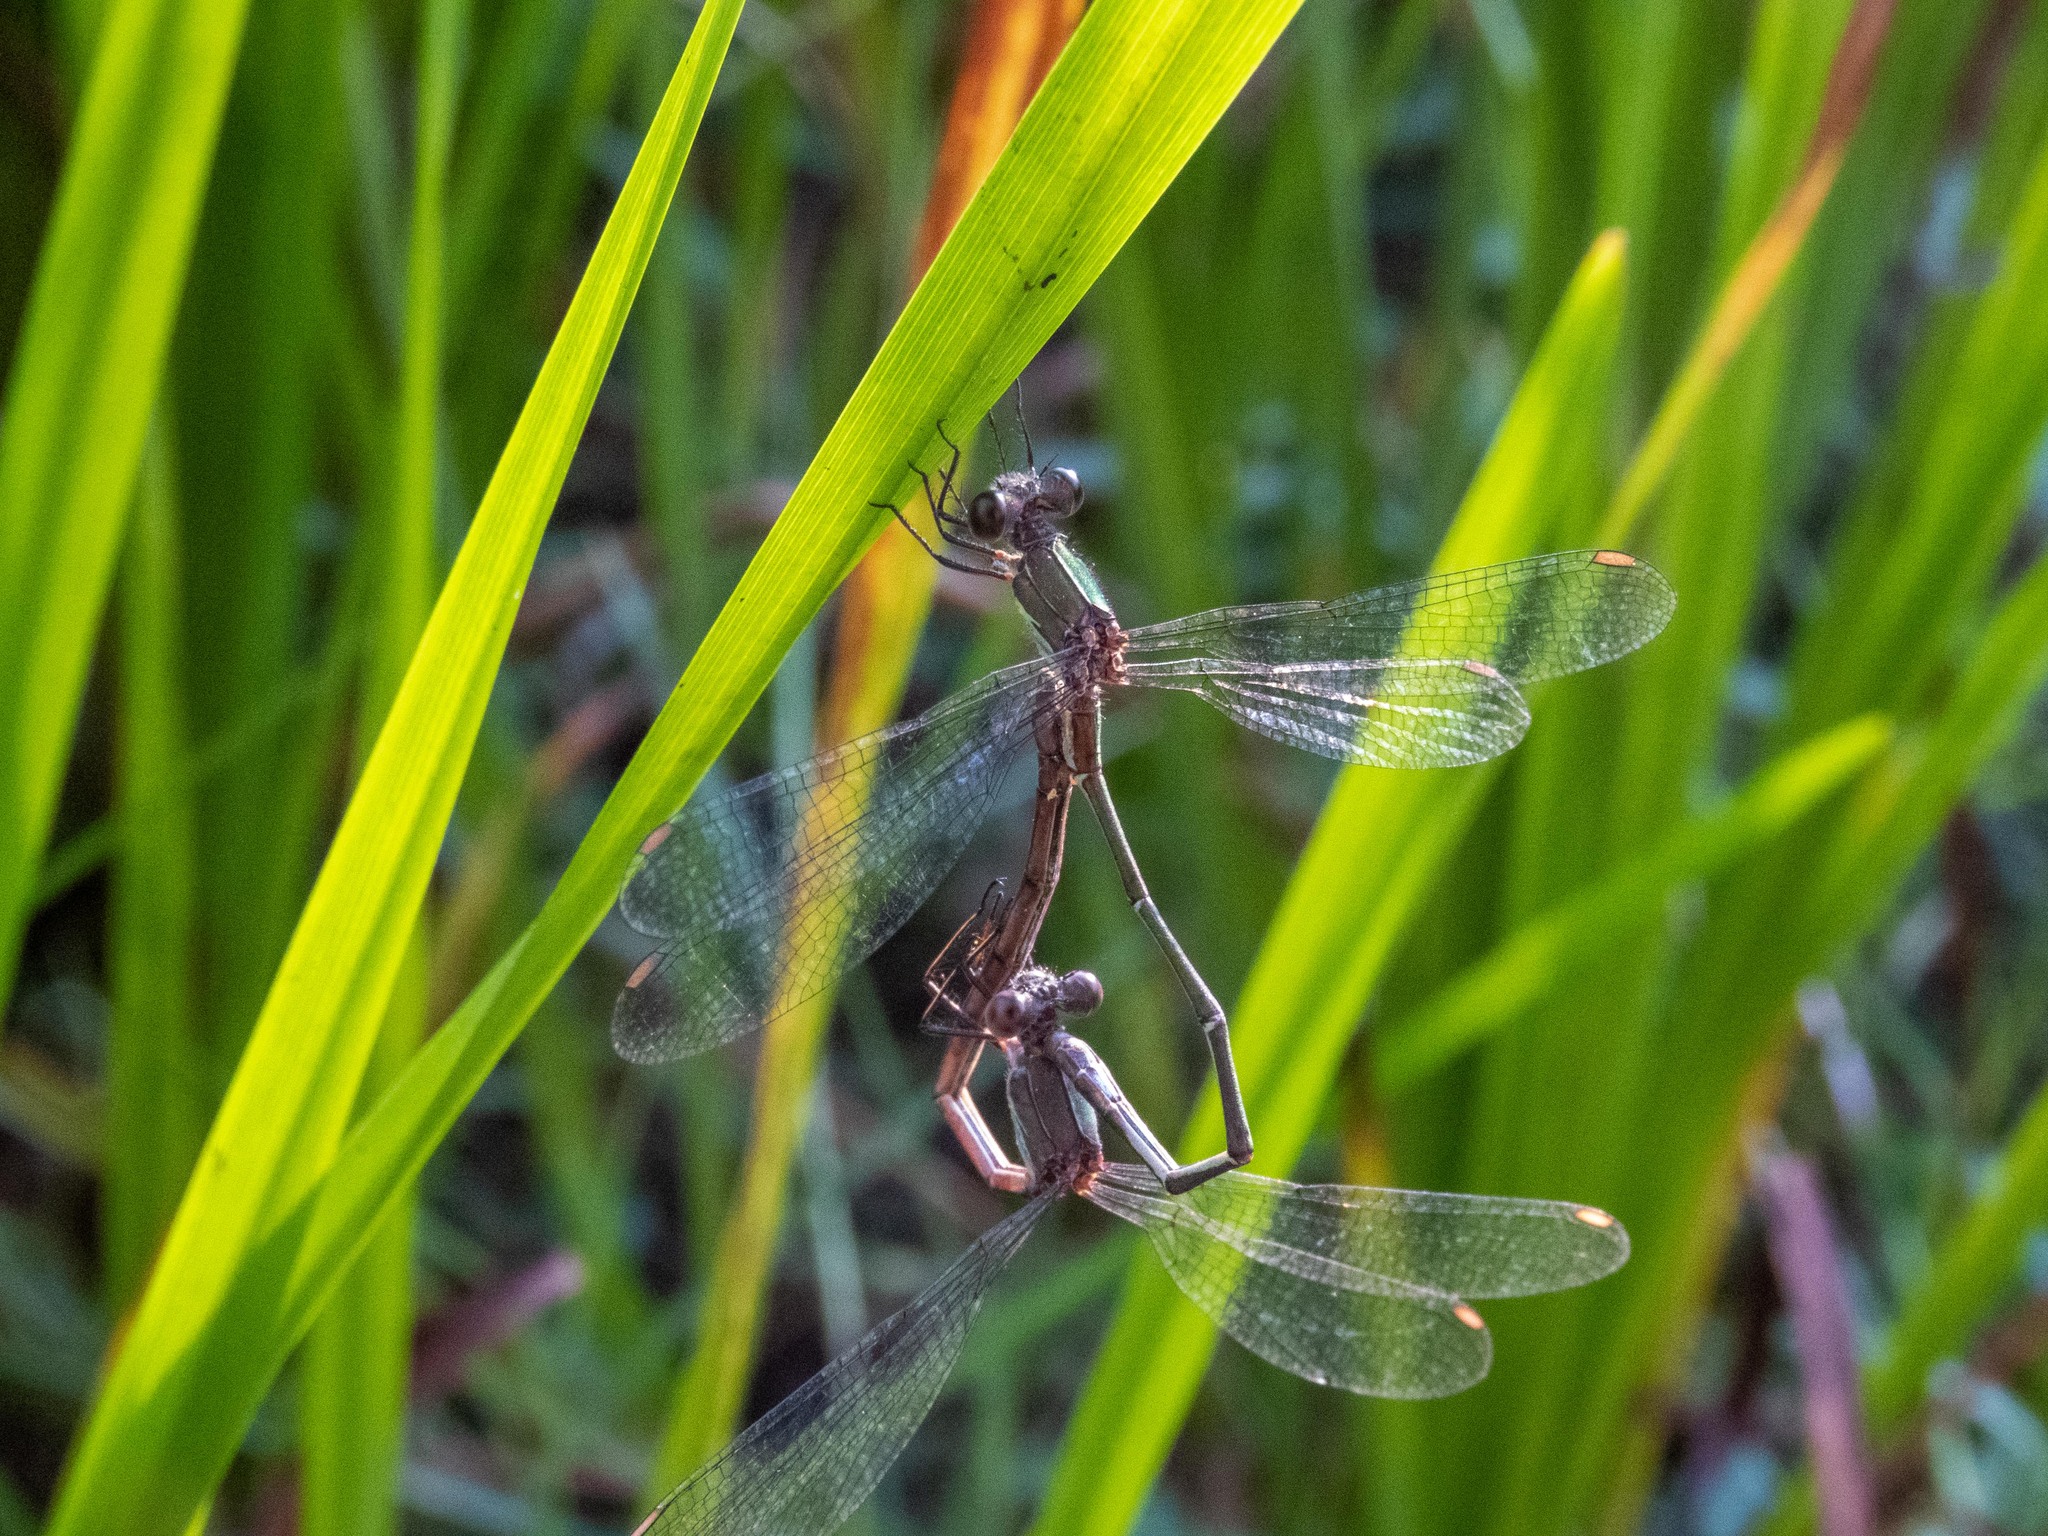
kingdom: Animalia
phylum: Arthropoda
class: Insecta
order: Odonata
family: Lestidae
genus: Chalcolestes
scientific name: Chalcolestes viridis
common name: Green emerald damselfly
